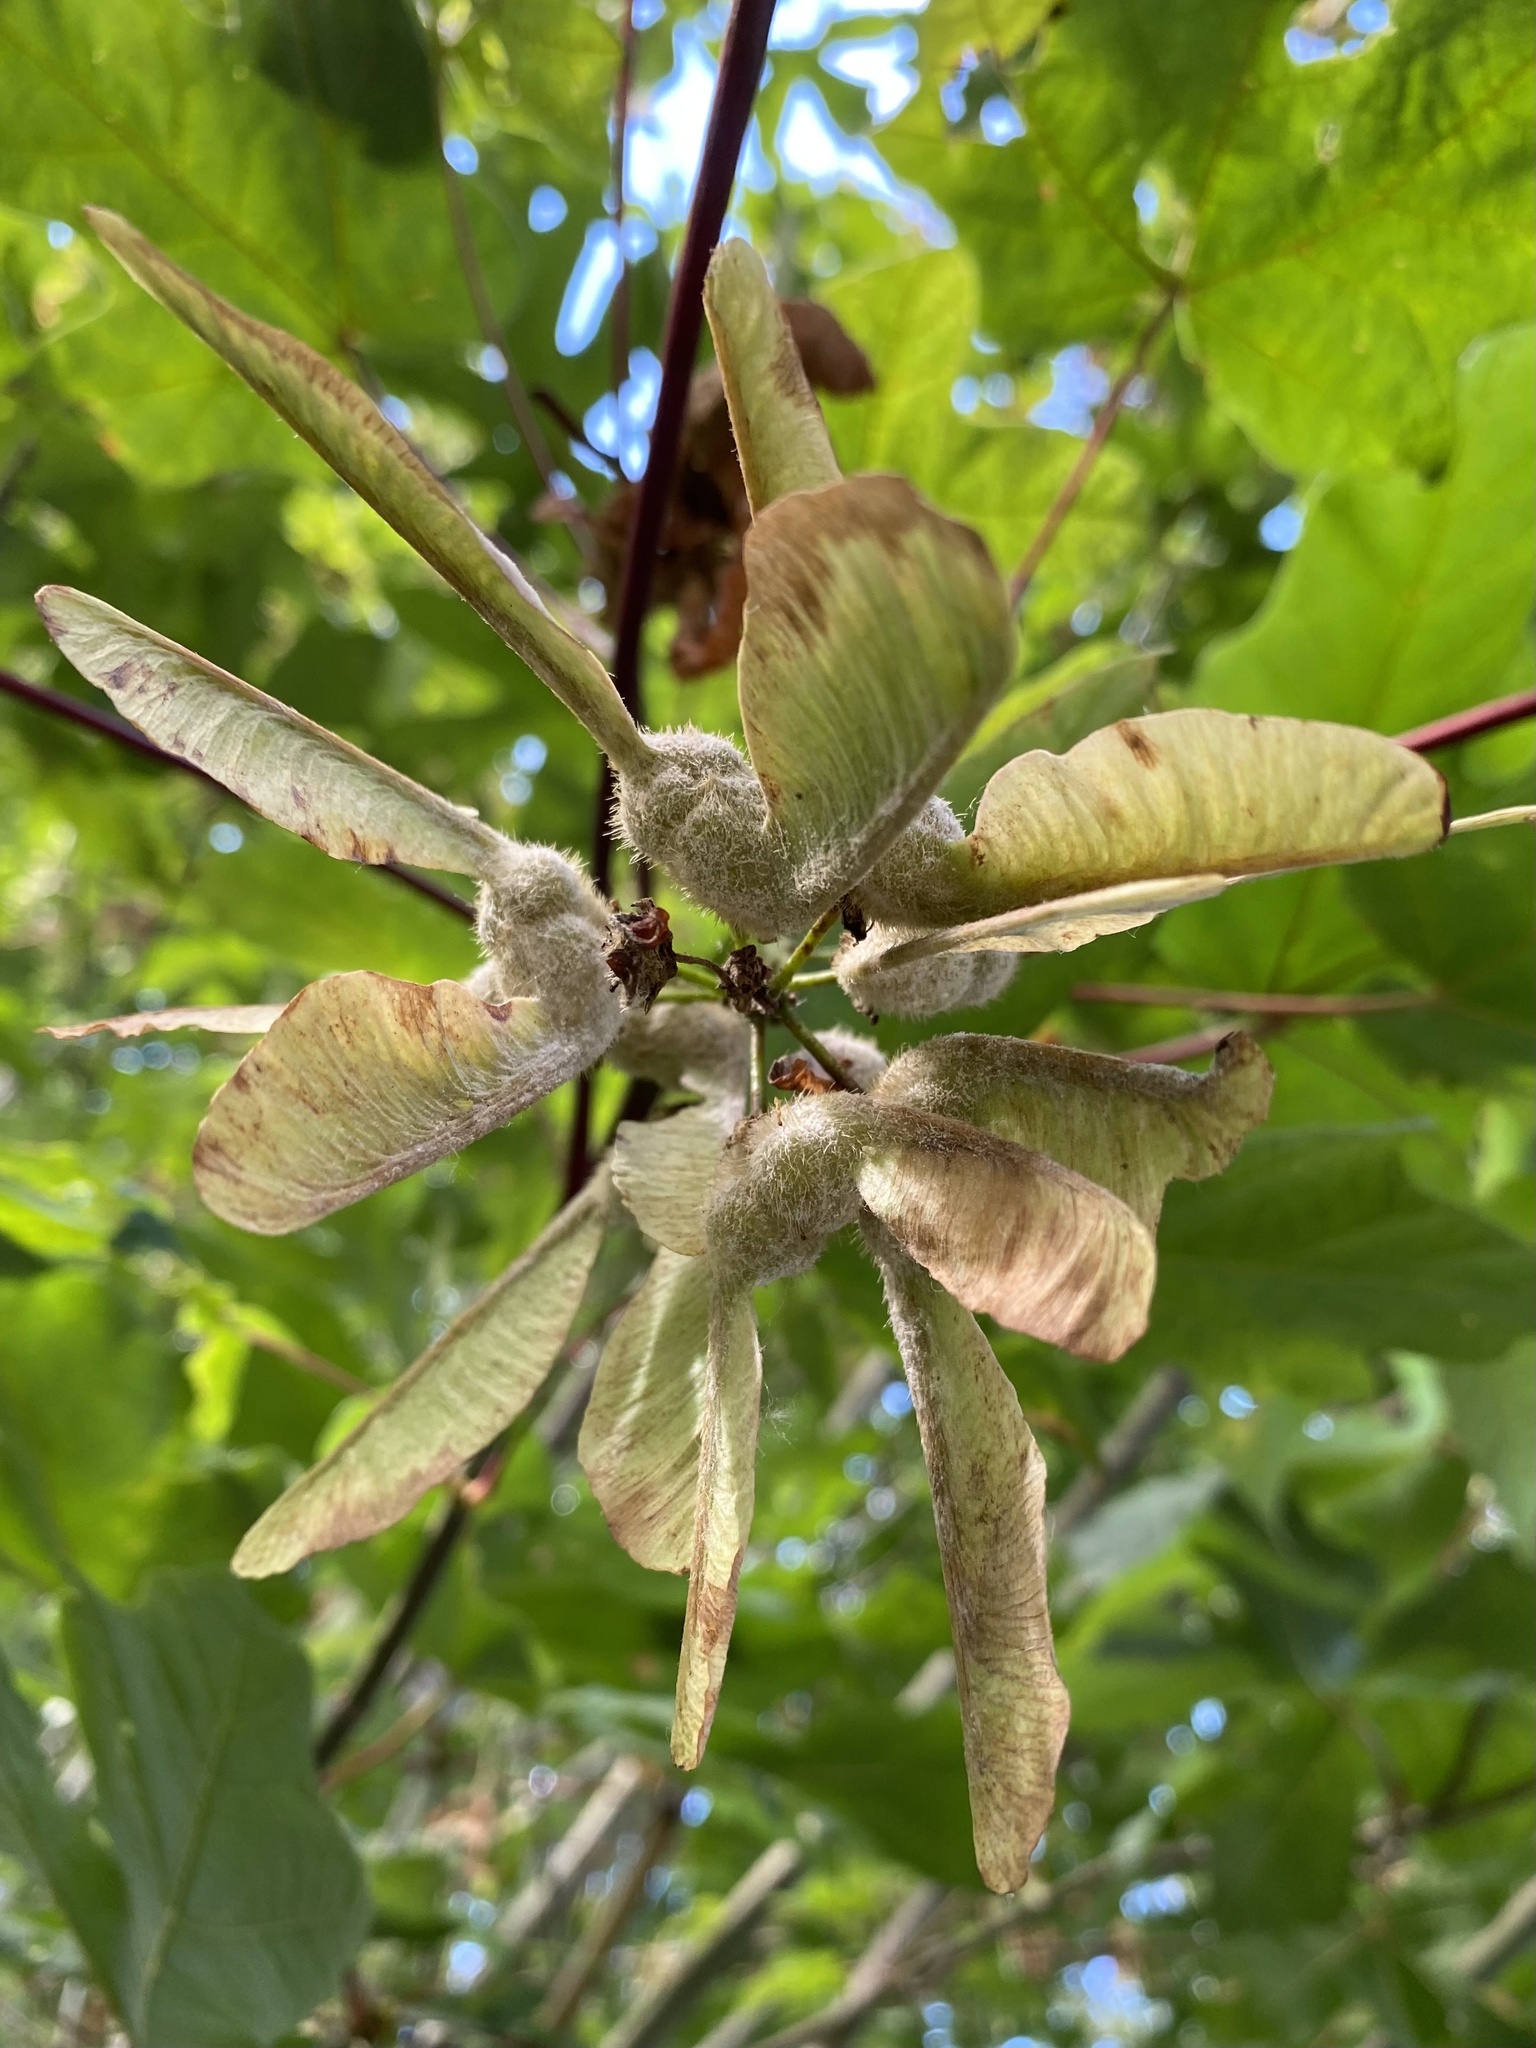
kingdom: Plantae
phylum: Tracheophyta
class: Magnoliopsida
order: Sapindales
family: Sapindaceae
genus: Acer
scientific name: Acer macrophyllum
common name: Oregon maple
